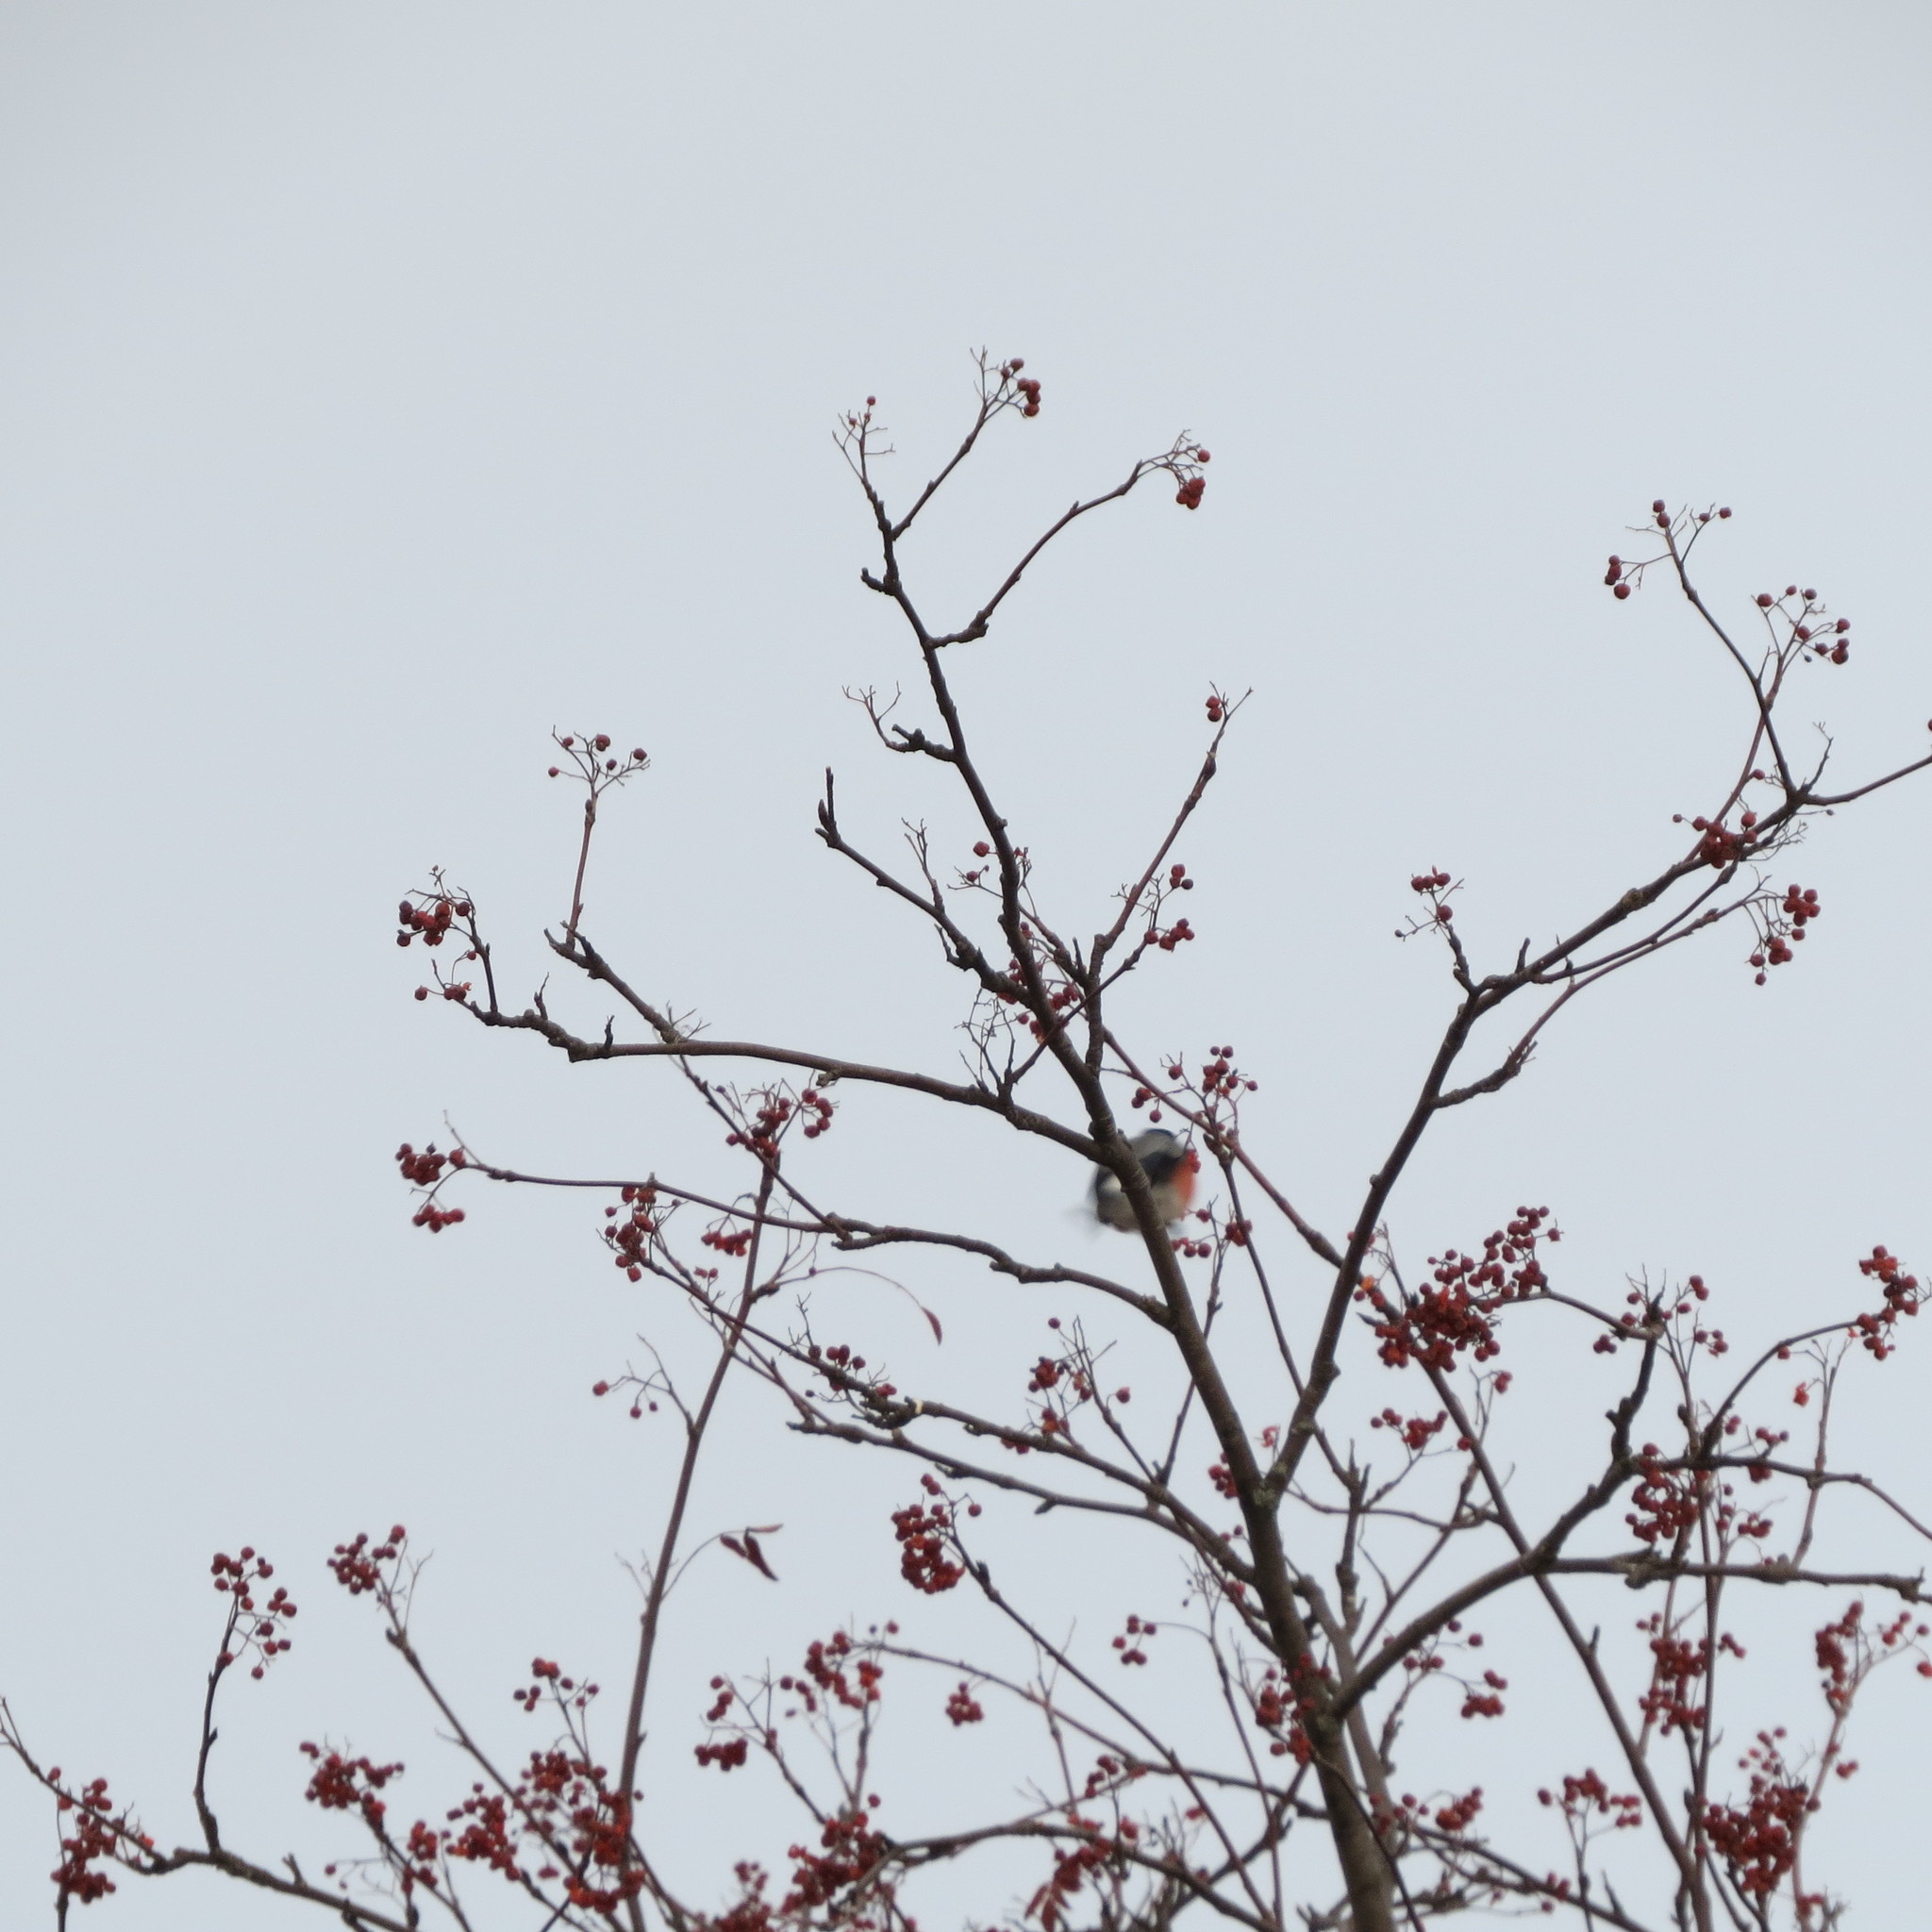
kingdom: Animalia
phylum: Chordata
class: Aves
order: Passeriformes
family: Fringillidae
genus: Pyrrhula
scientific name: Pyrrhula pyrrhula
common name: Eurasian bullfinch
